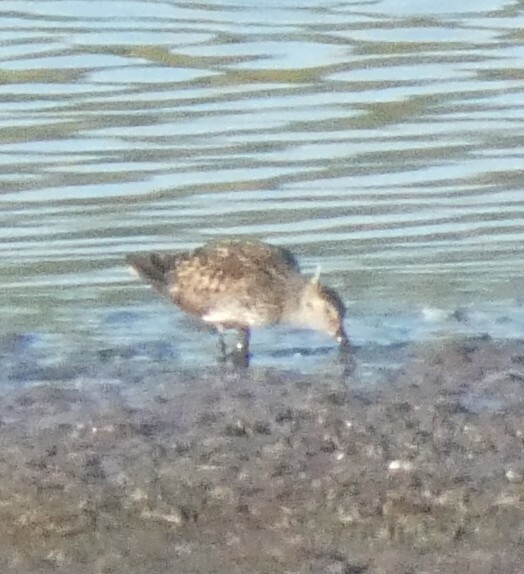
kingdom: Animalia
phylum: Chordata
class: Aves
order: Charadriiformes
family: Scolopacidae
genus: Calidris
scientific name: Calidris alpina
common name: Dunlin
